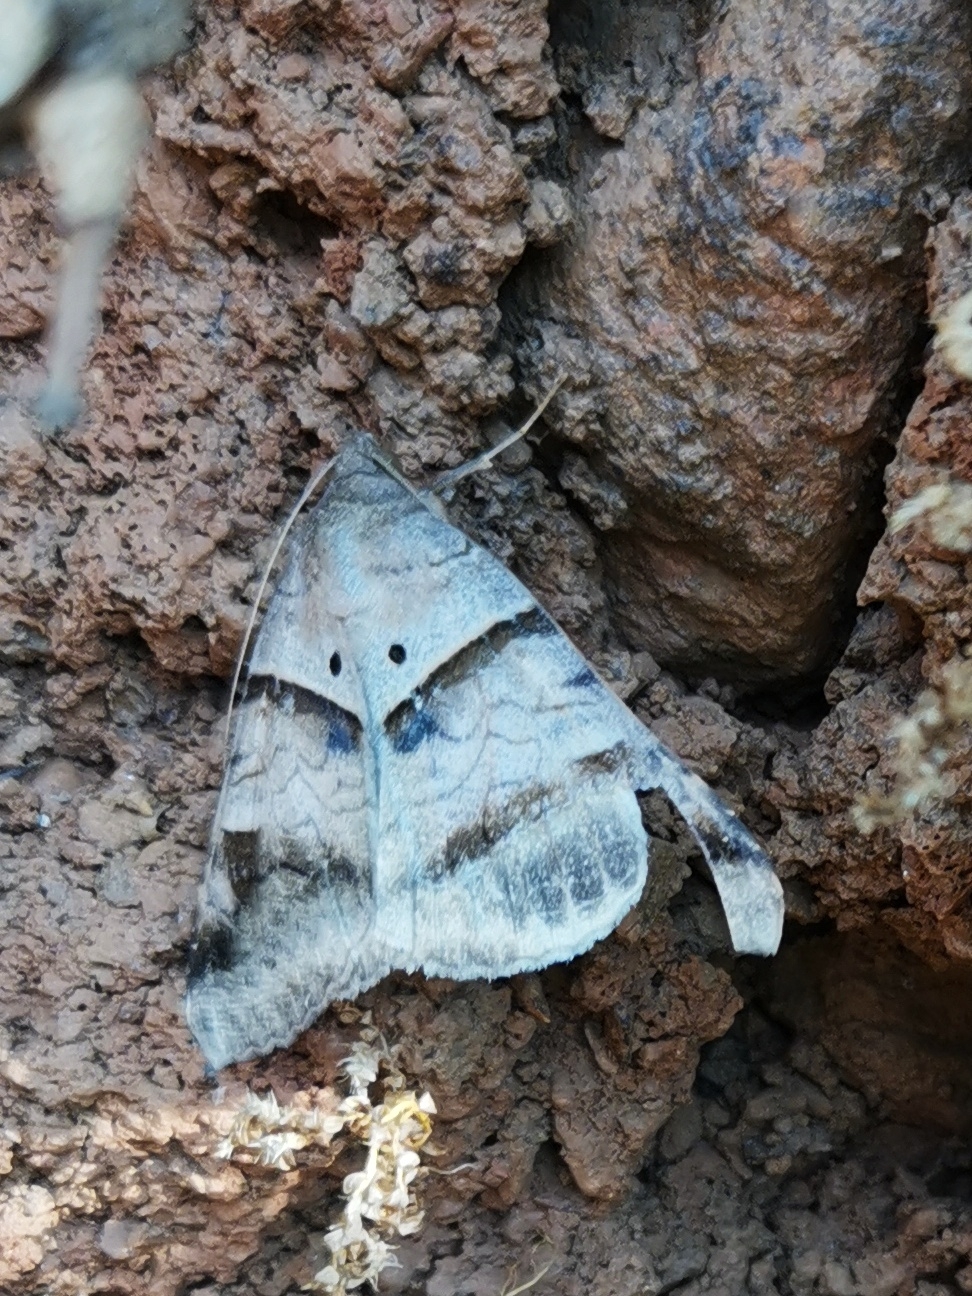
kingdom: Animalia
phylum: Arthropoda
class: Insecta
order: Lepidoptera
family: Erebidae
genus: Mocis
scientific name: Mocis undata
